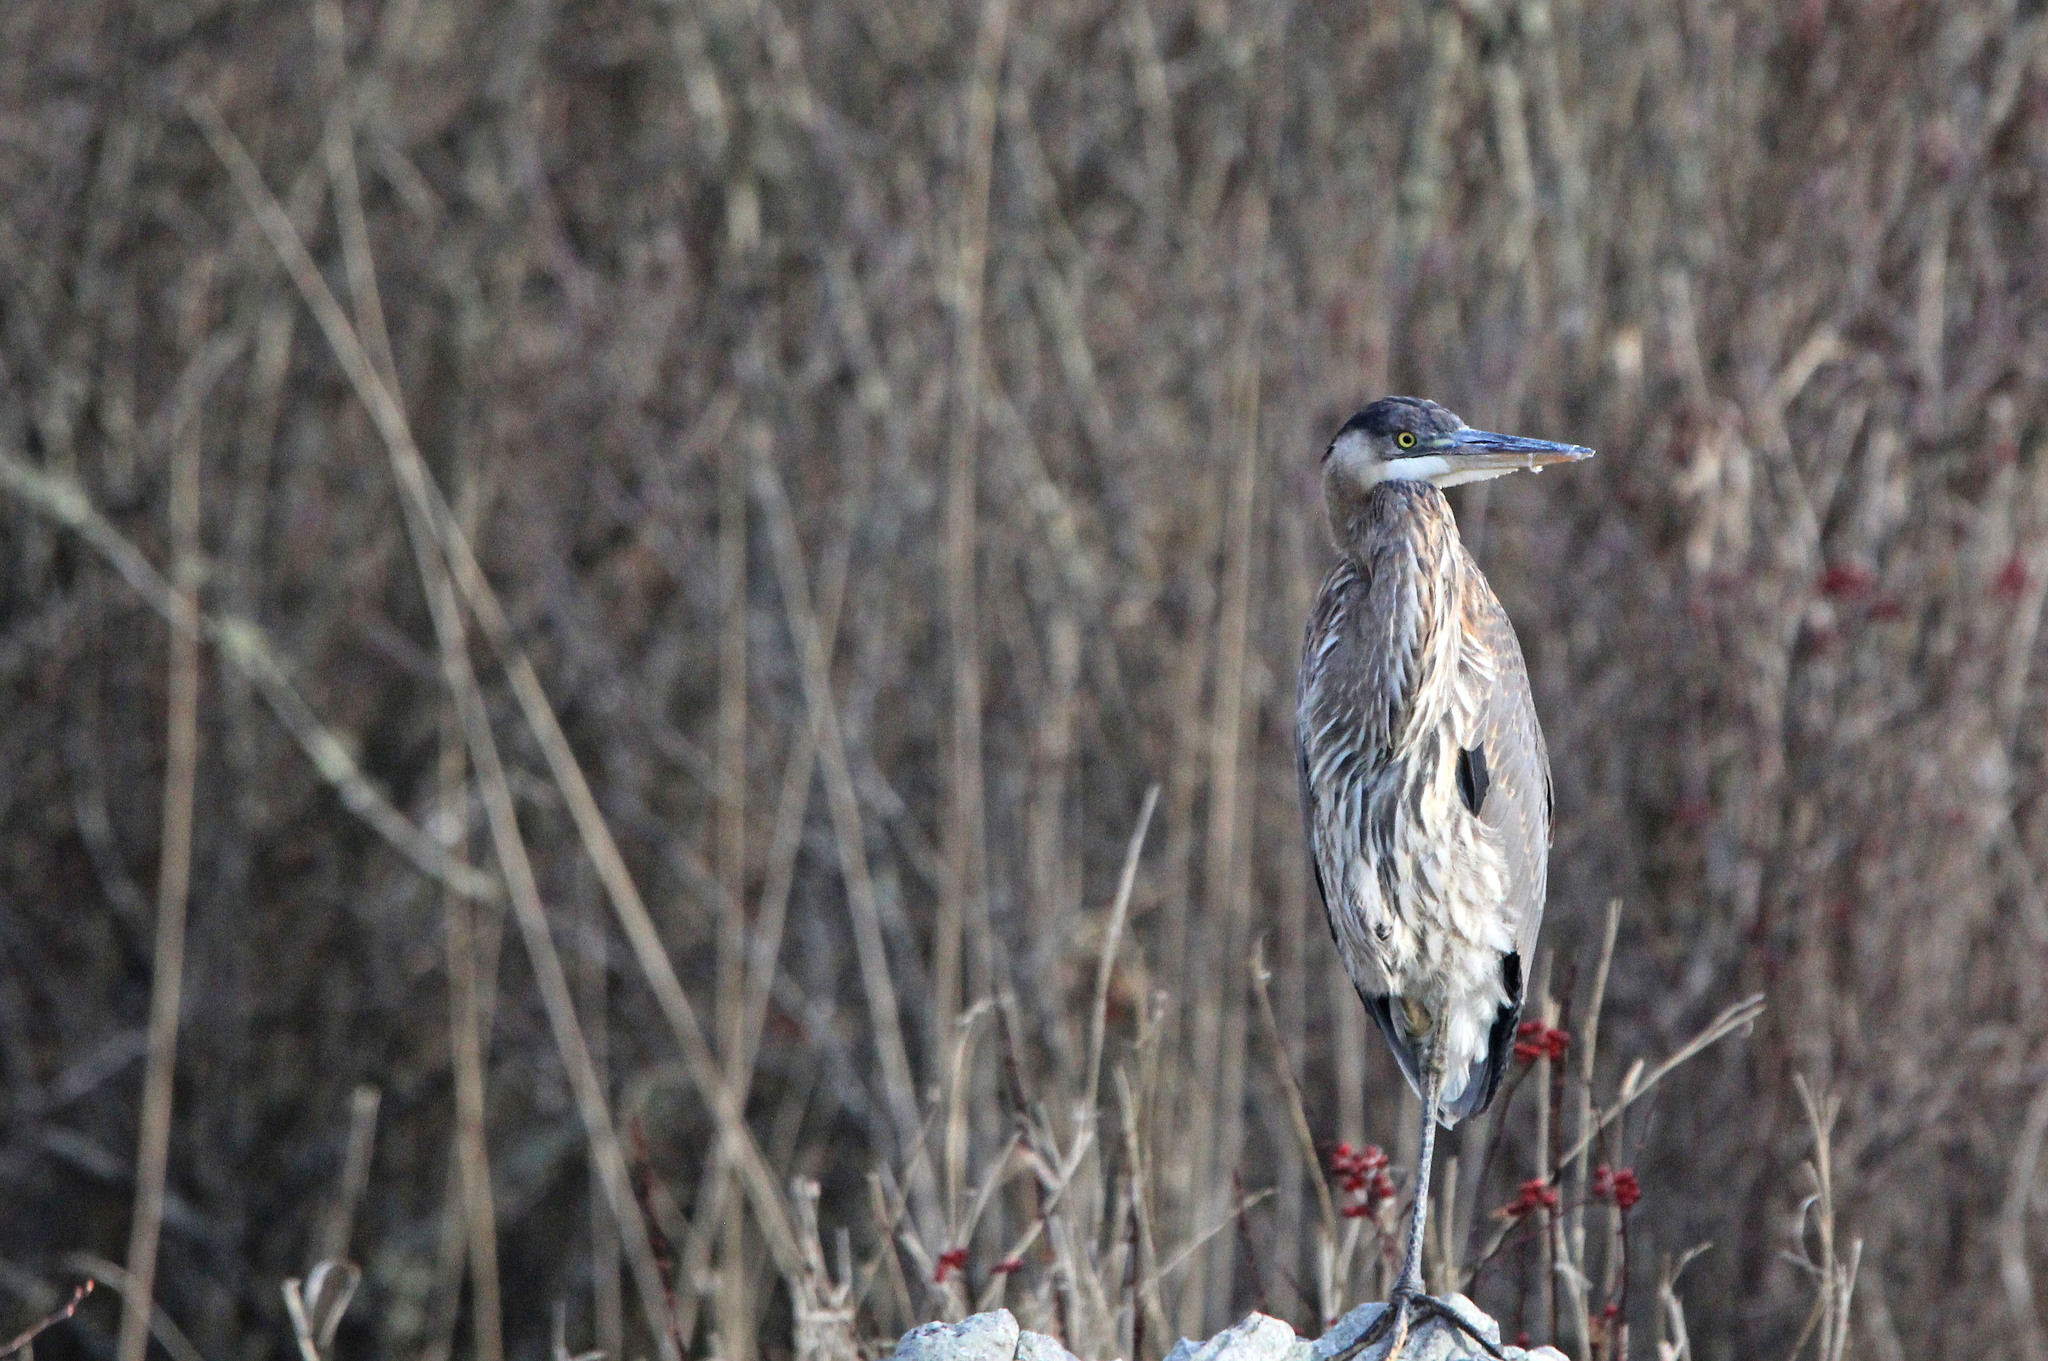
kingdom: Animalia
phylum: Chordata
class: Aves
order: Pelecaniformes
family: Ardeidae
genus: Ardea
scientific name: Ardea herodias
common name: Great blue heron
